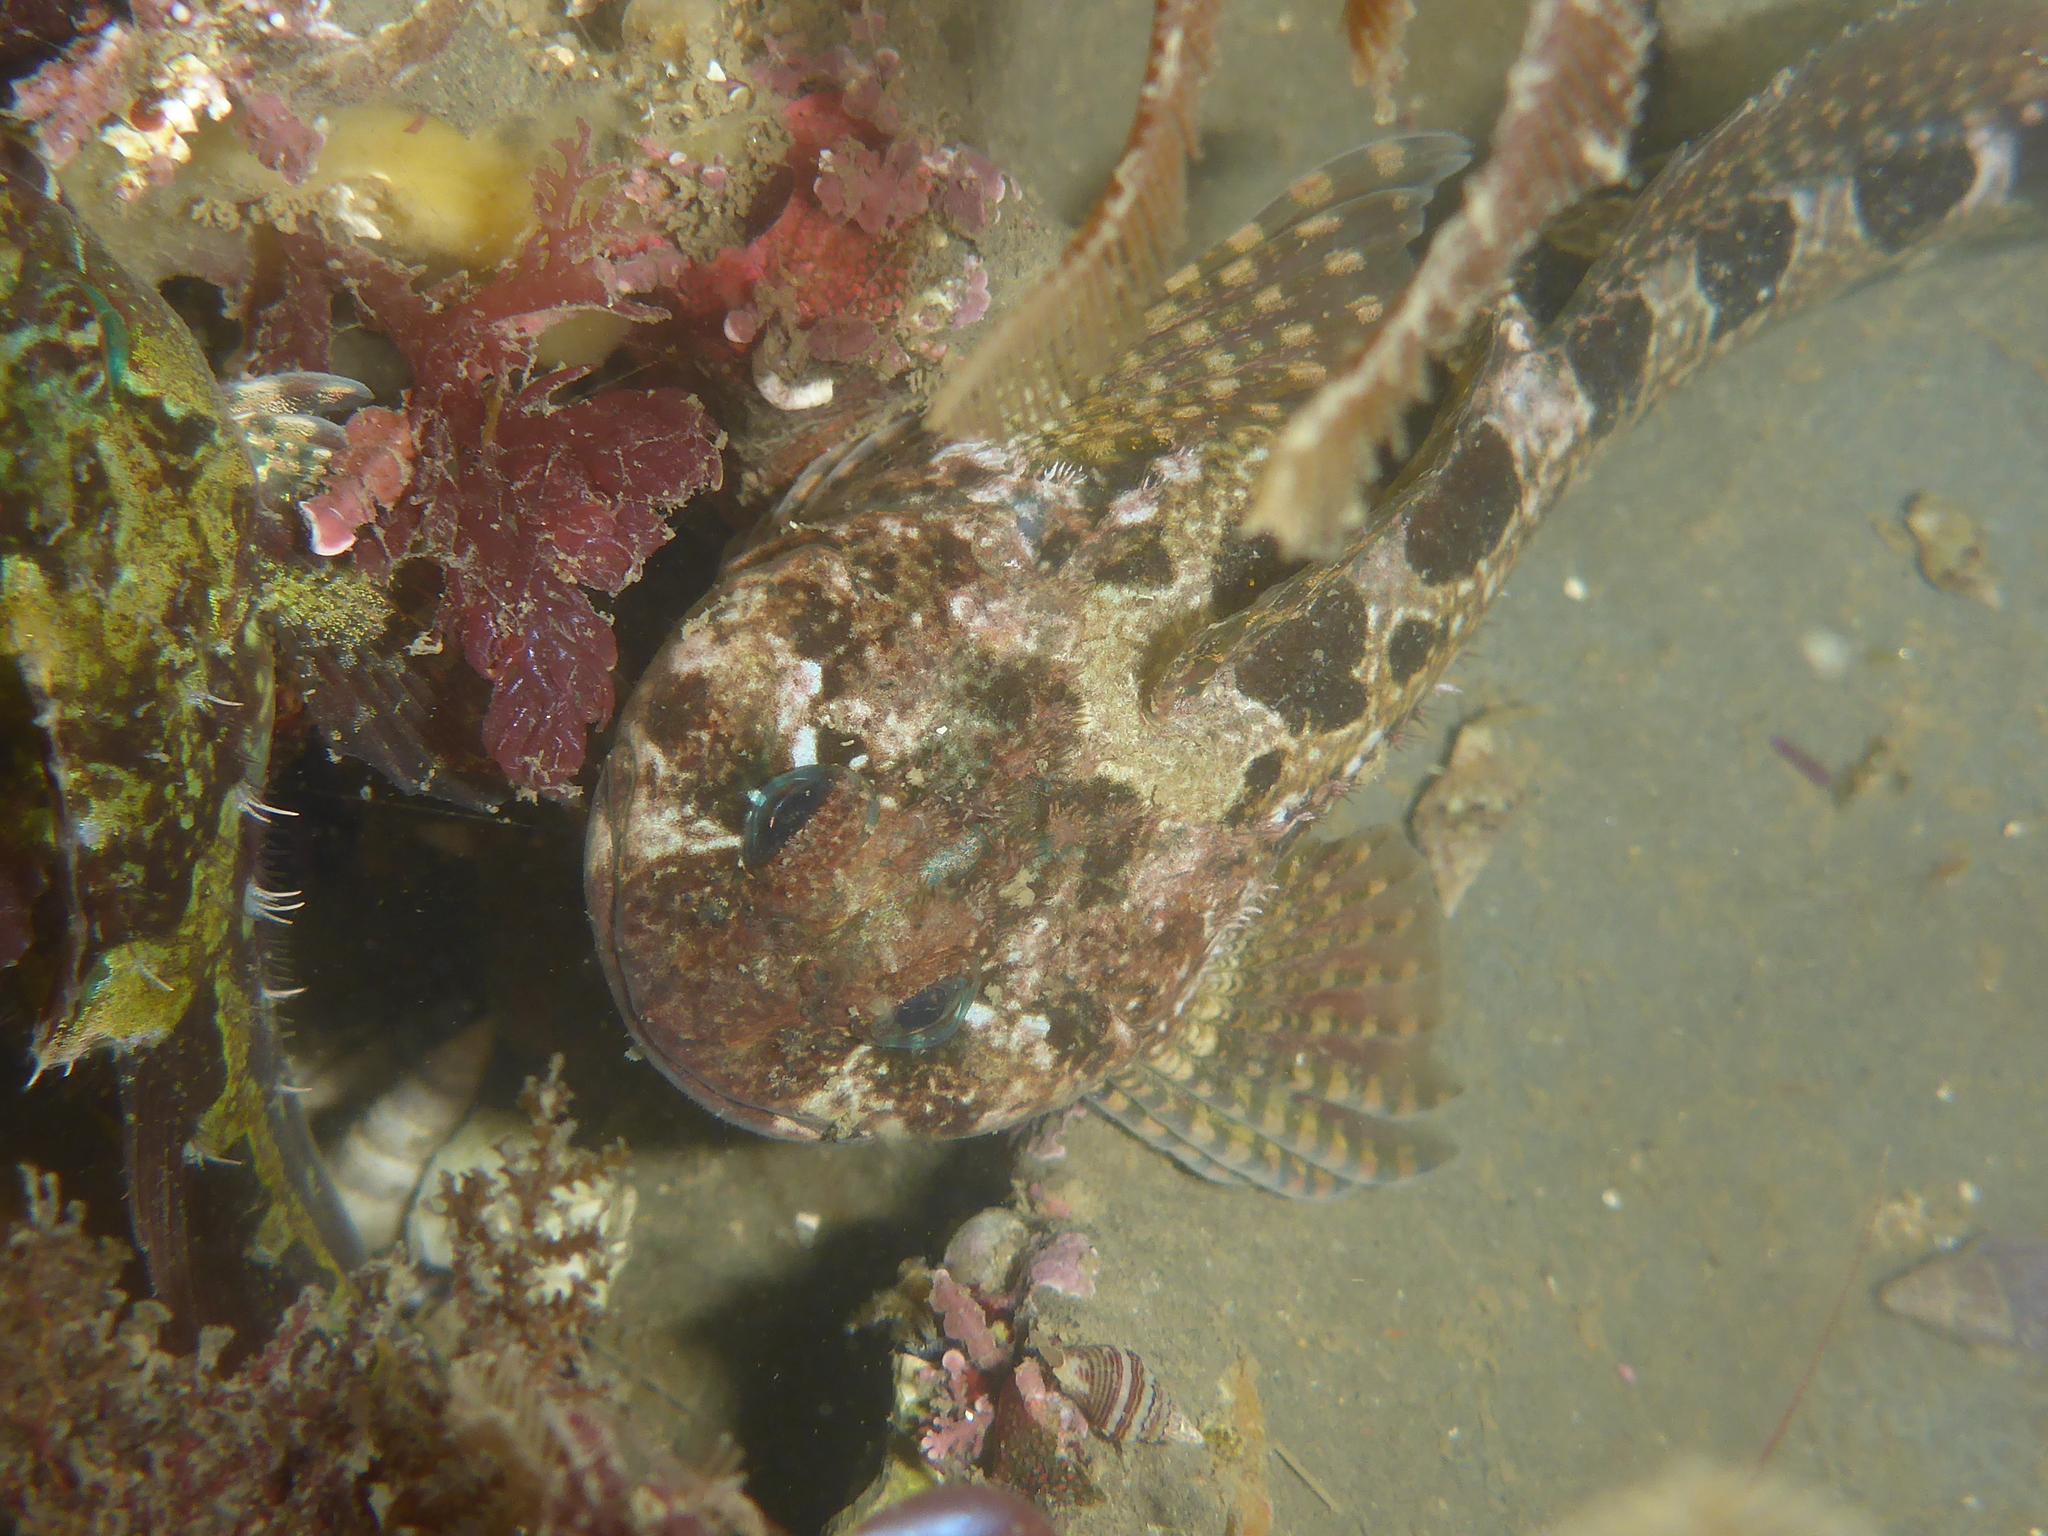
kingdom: Animalia
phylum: Chordata
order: Scorpaeniformes
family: Cottidae
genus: Clinocottus
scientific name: Clinocottus recalvus
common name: Bald sculpin
